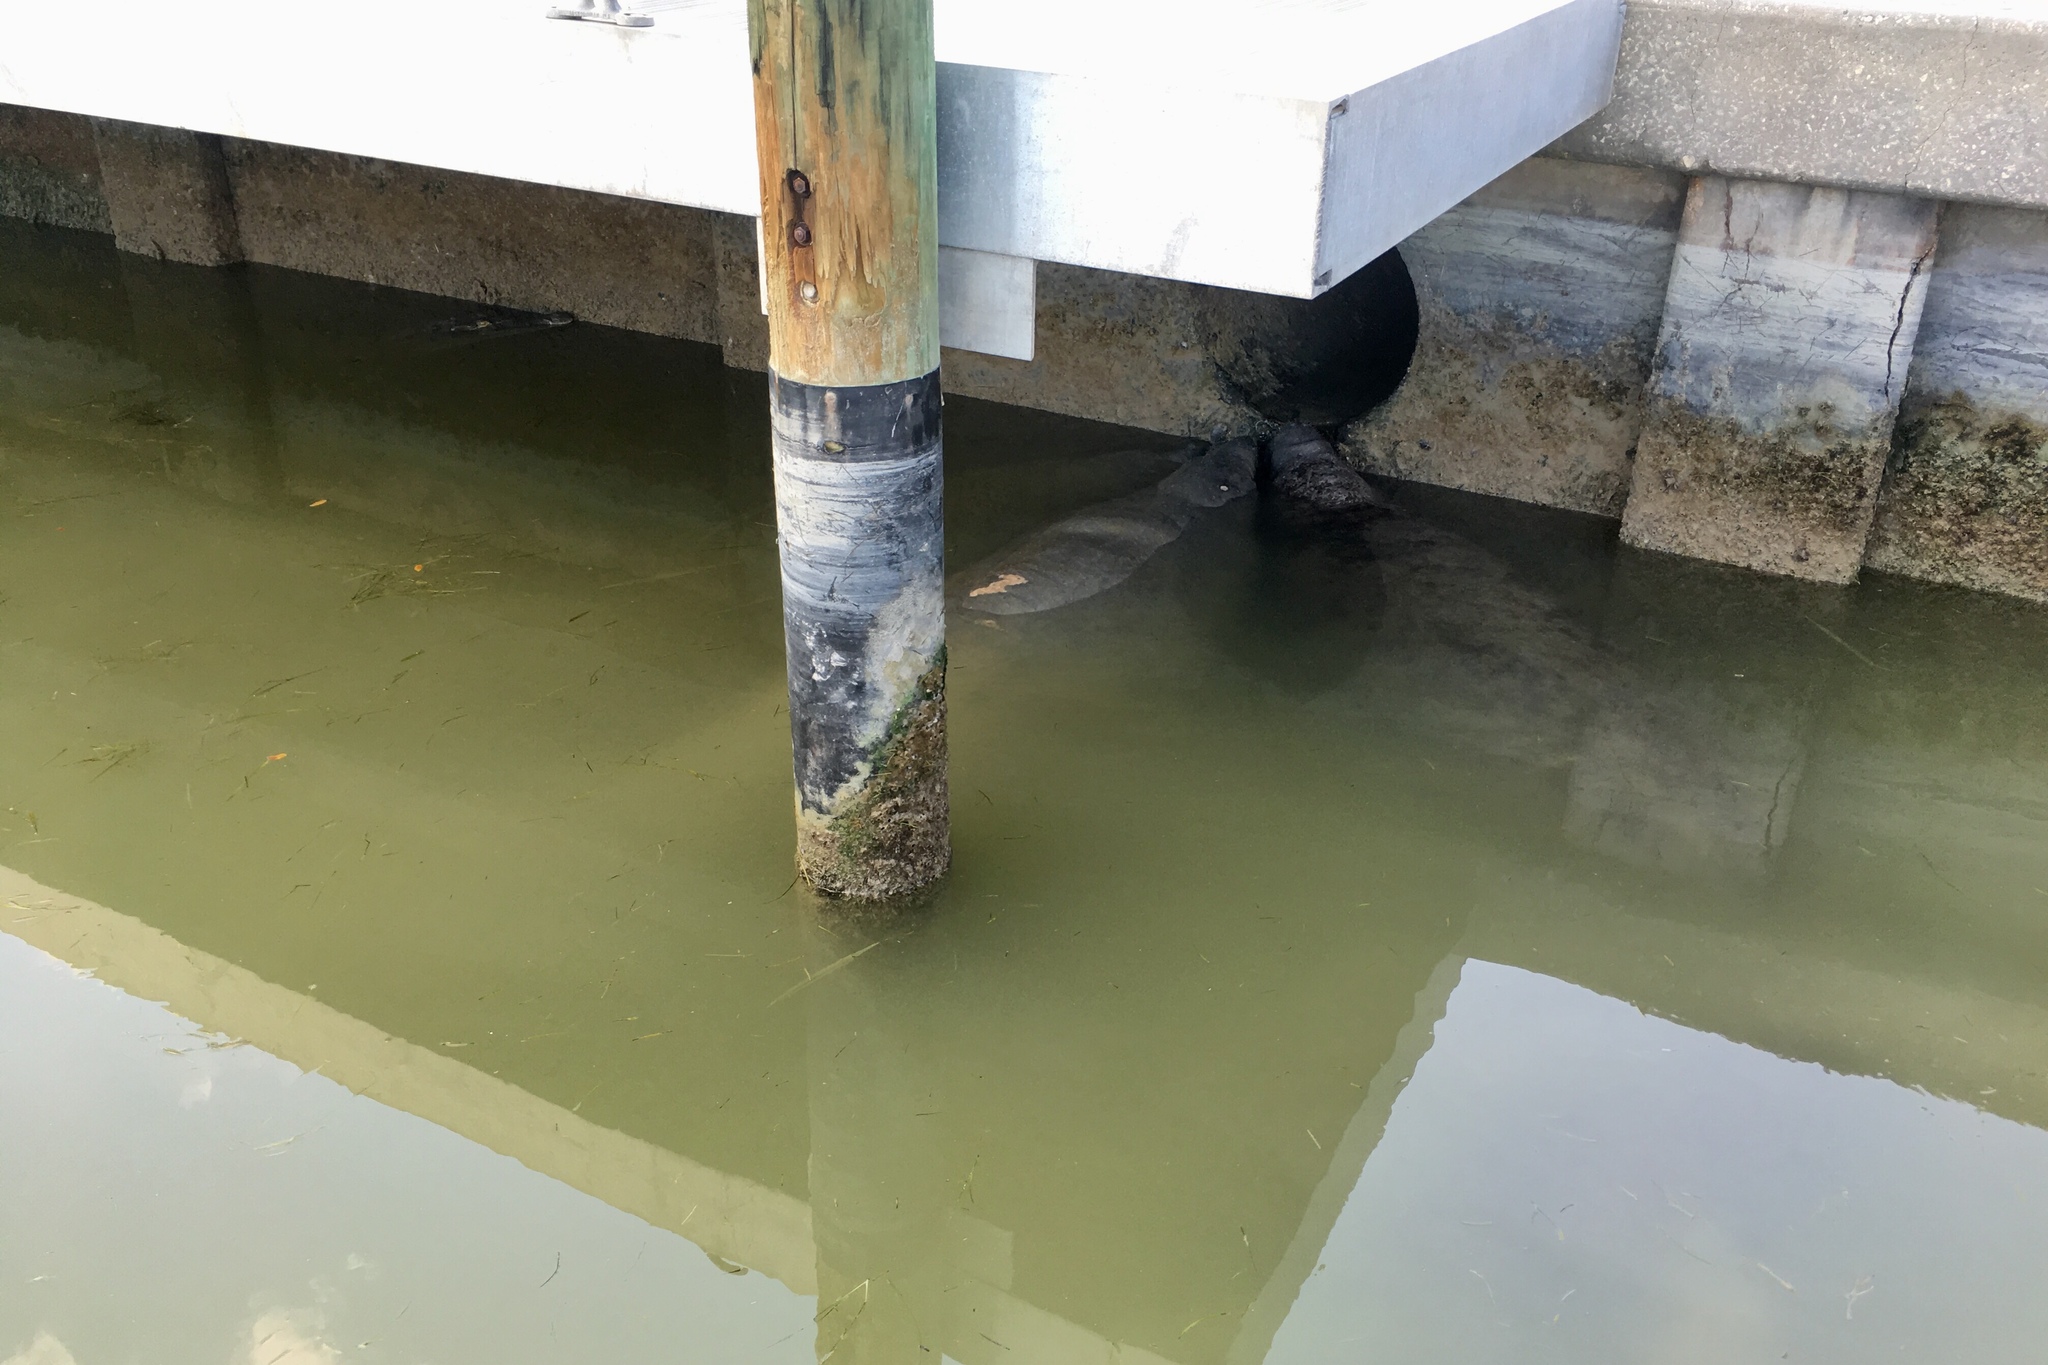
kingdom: Animalia
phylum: Chordata
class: Mammalia
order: Sirenia
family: Trichechidae
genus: Trichechus
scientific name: Trichechus manatus
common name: West indian manatee
